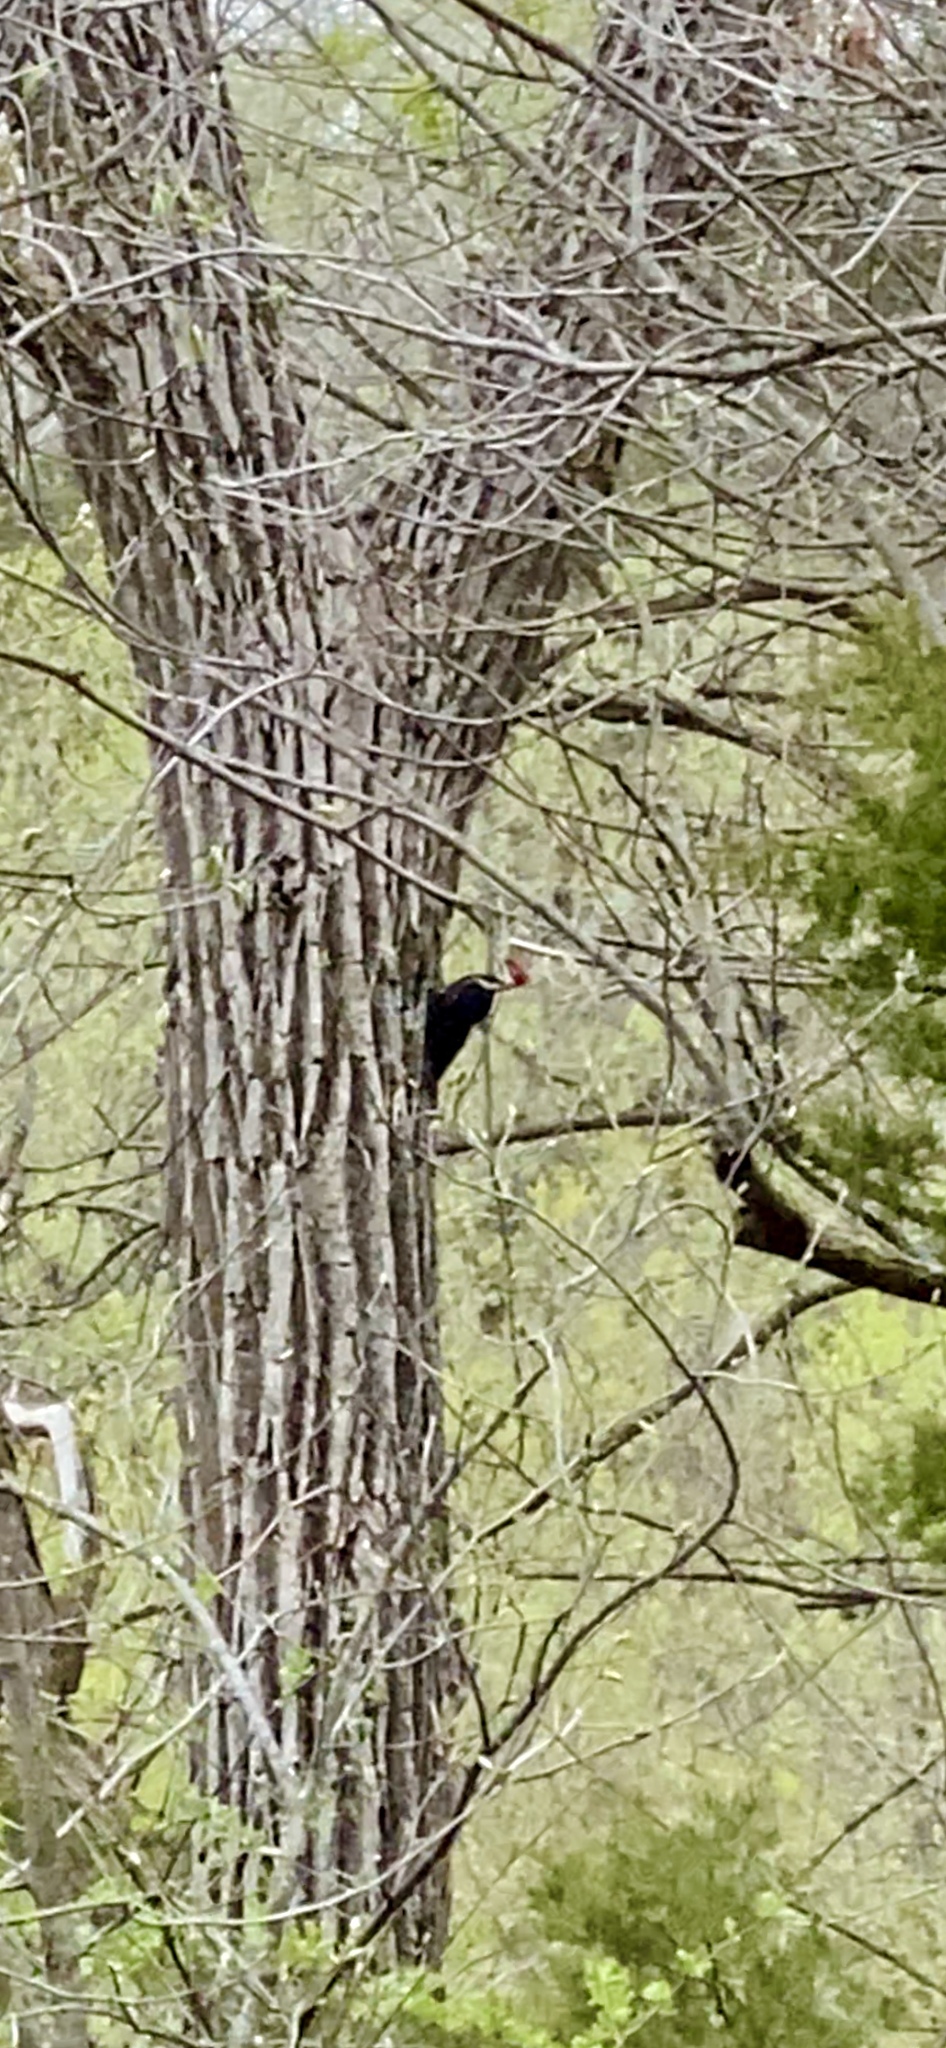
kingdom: Animalia
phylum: Chordata
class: Aves
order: Piciformes
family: Picidae
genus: Dryocopus
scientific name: Dryocopus pileatus
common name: Pileated woodpecker
